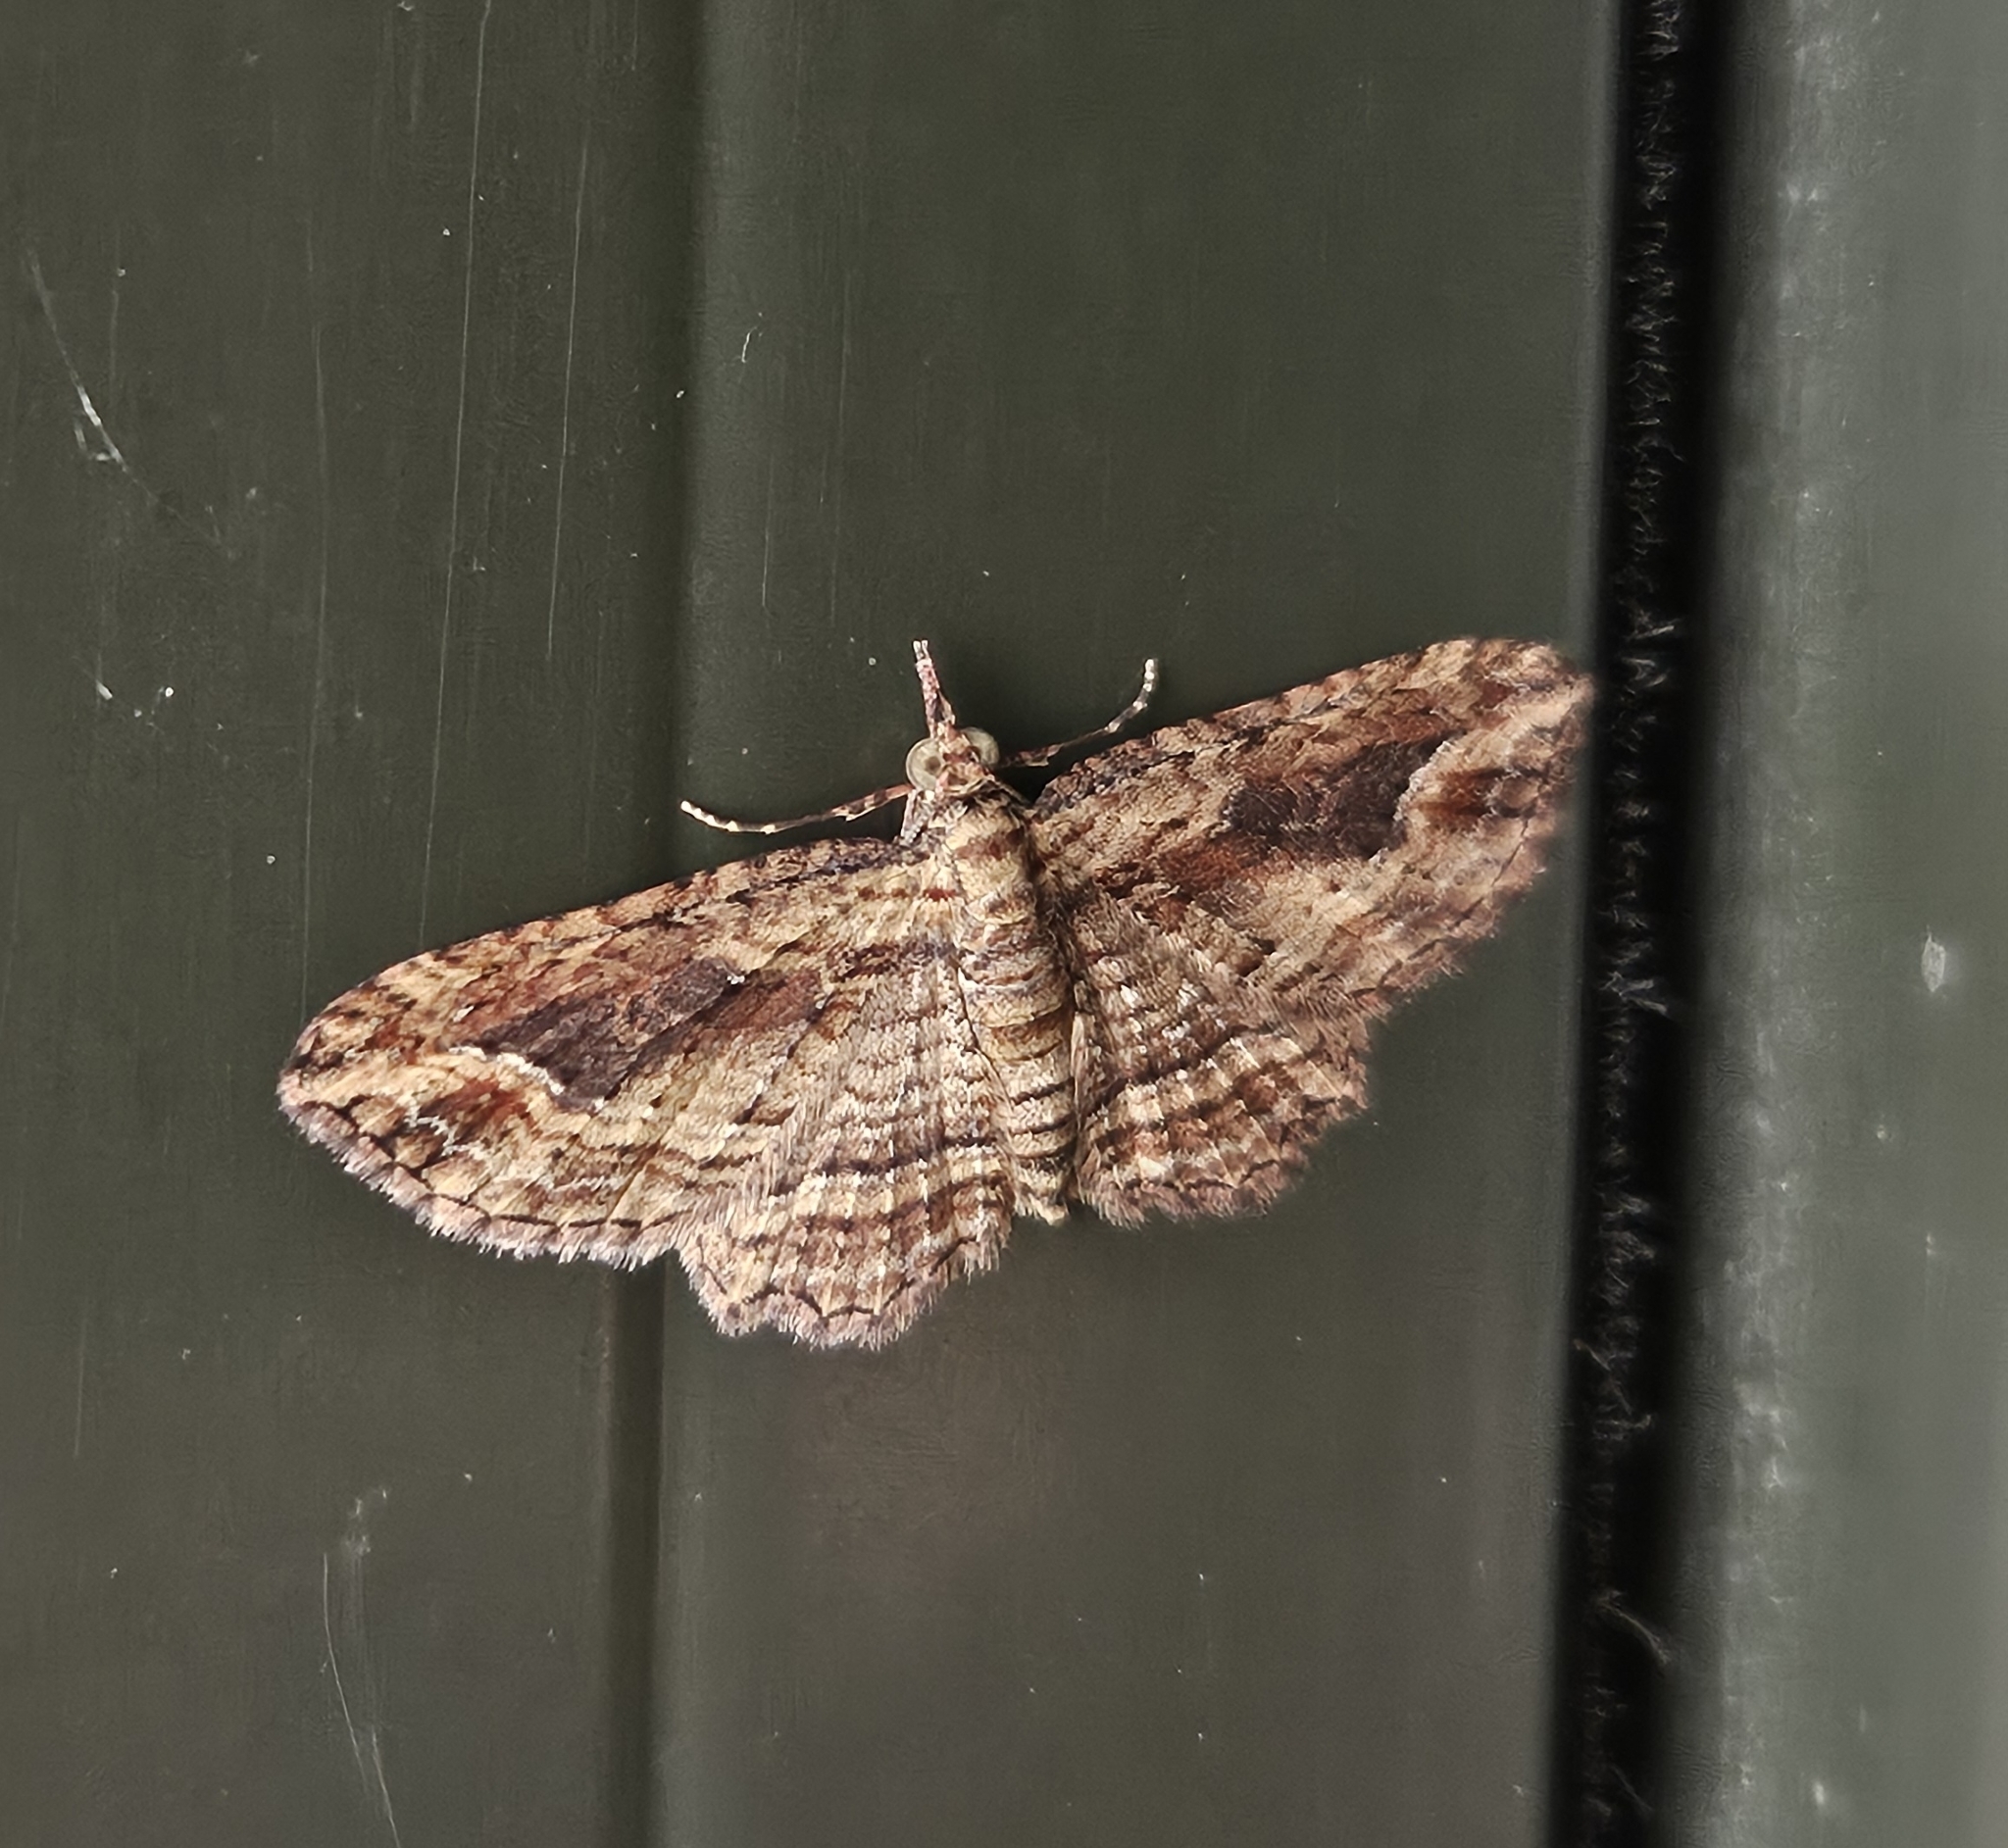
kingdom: Animalia
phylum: Arthropoda
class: Insecta
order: Lepidoptera
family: Geometridae
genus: Chloroclystis
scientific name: Chloroclystis filata
